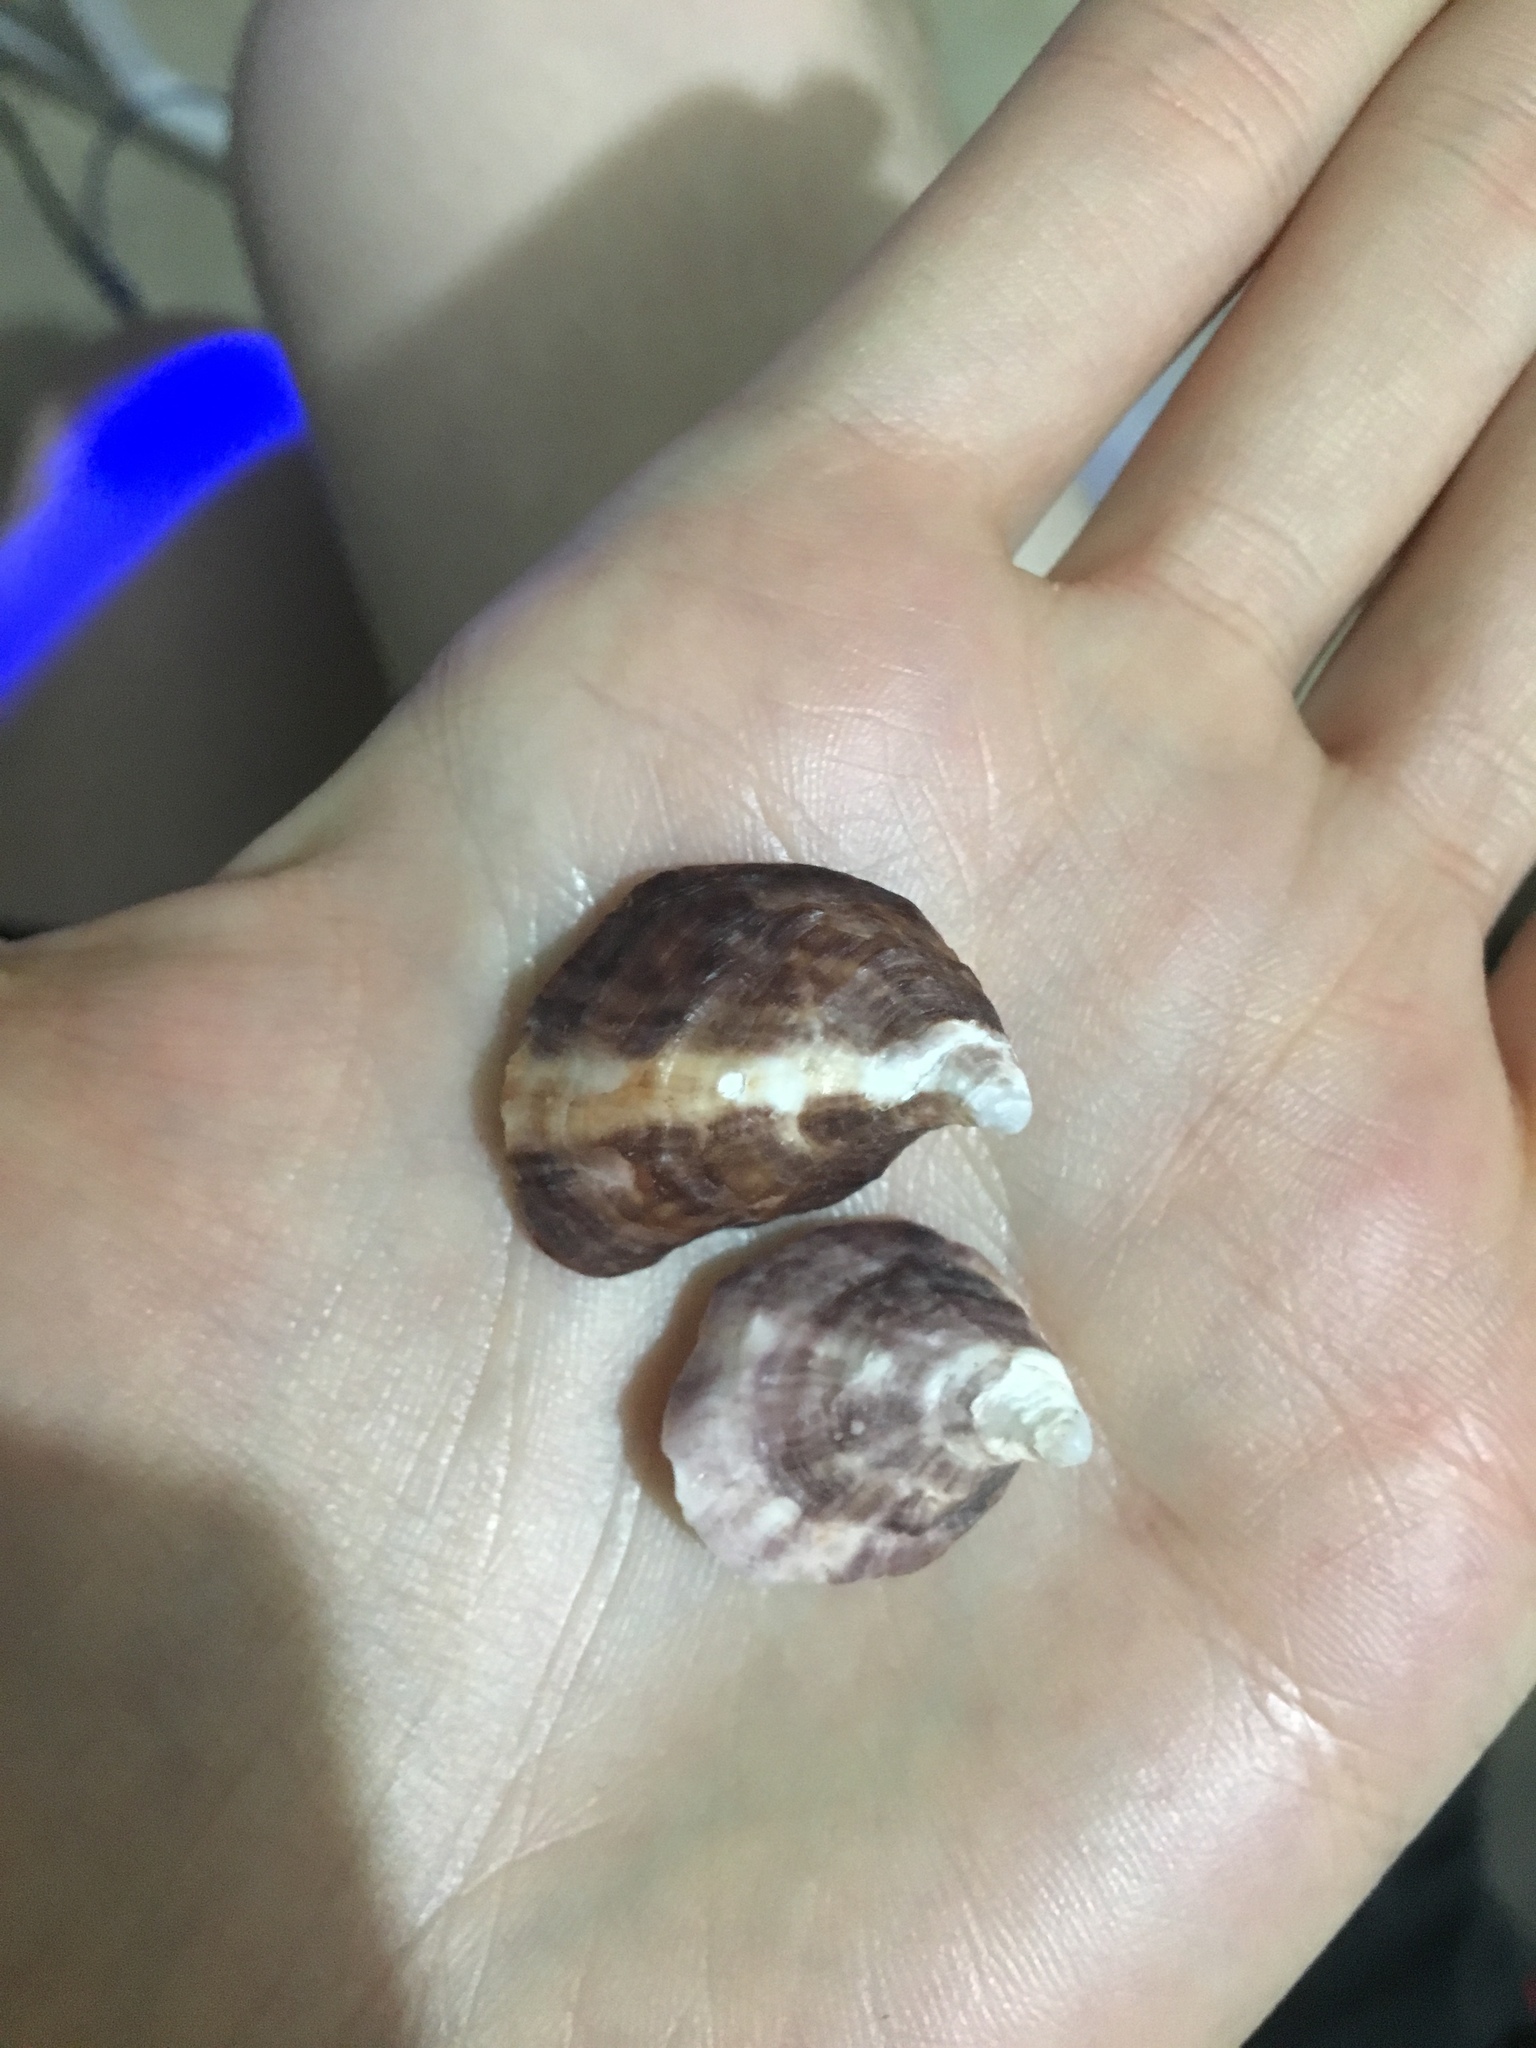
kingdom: Animalia
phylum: Mollusca
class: Bivalvia
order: Ostreida
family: Ostreidae
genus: Saccostrea
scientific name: Saccostrea glomerata
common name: Sydney cupped oyster
